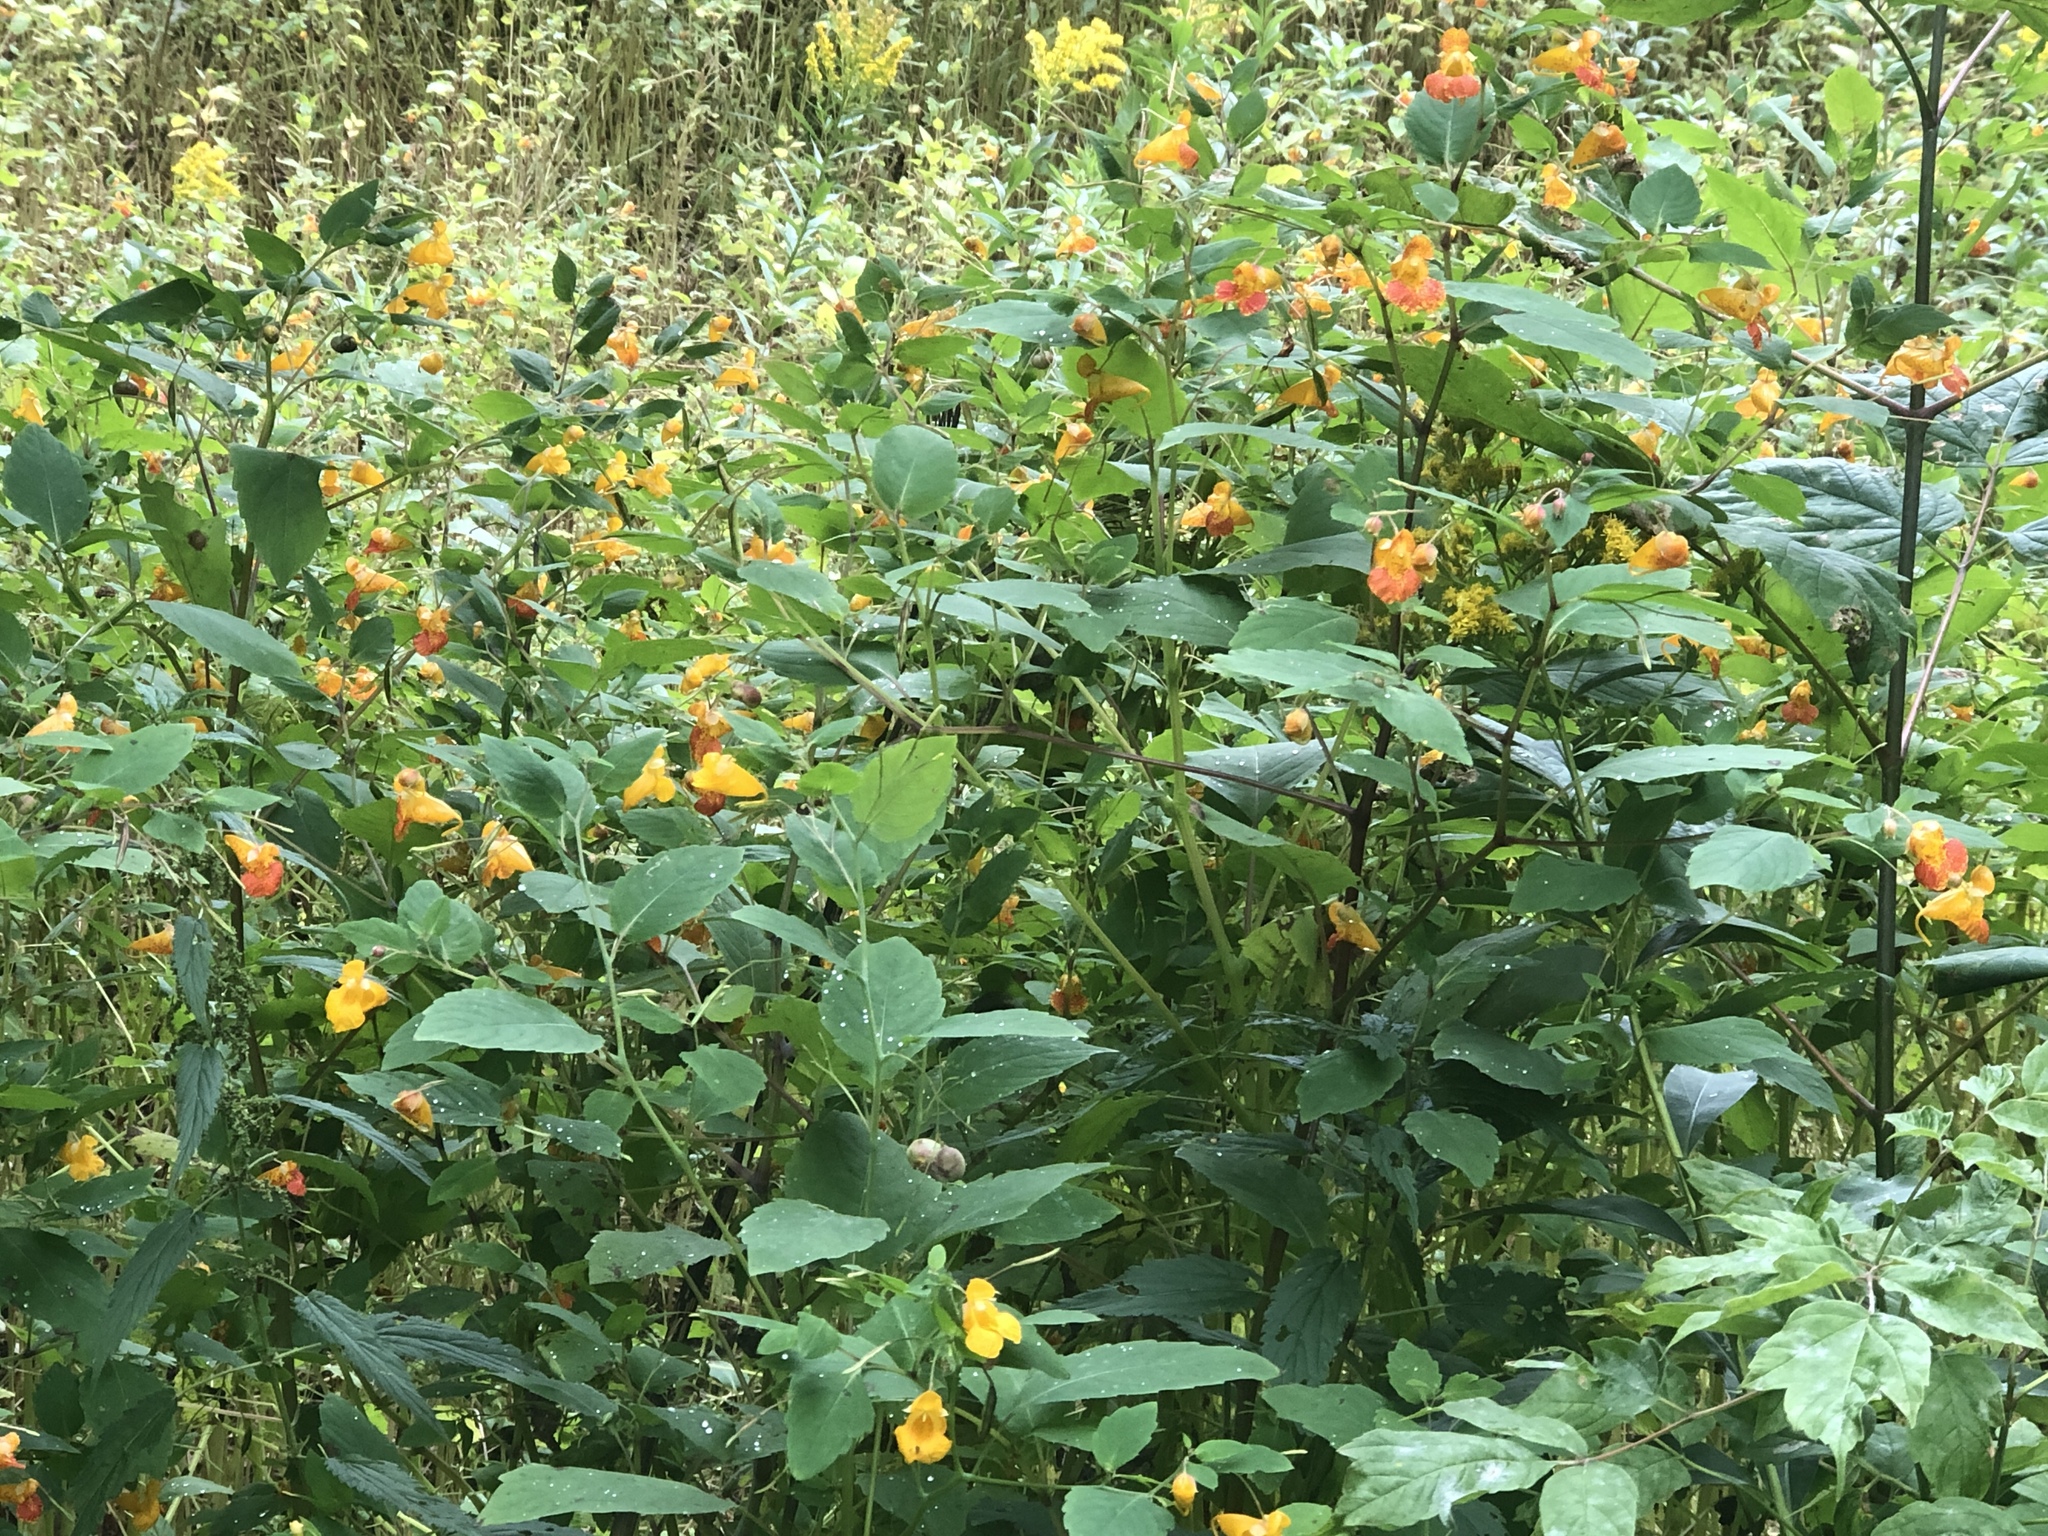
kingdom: Plantae
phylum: Tracheophyta
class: Magnoliopsida
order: Ericales
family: Balsaminaceae
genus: Impatiens
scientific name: Impatiens capensis
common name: Orange balsam
